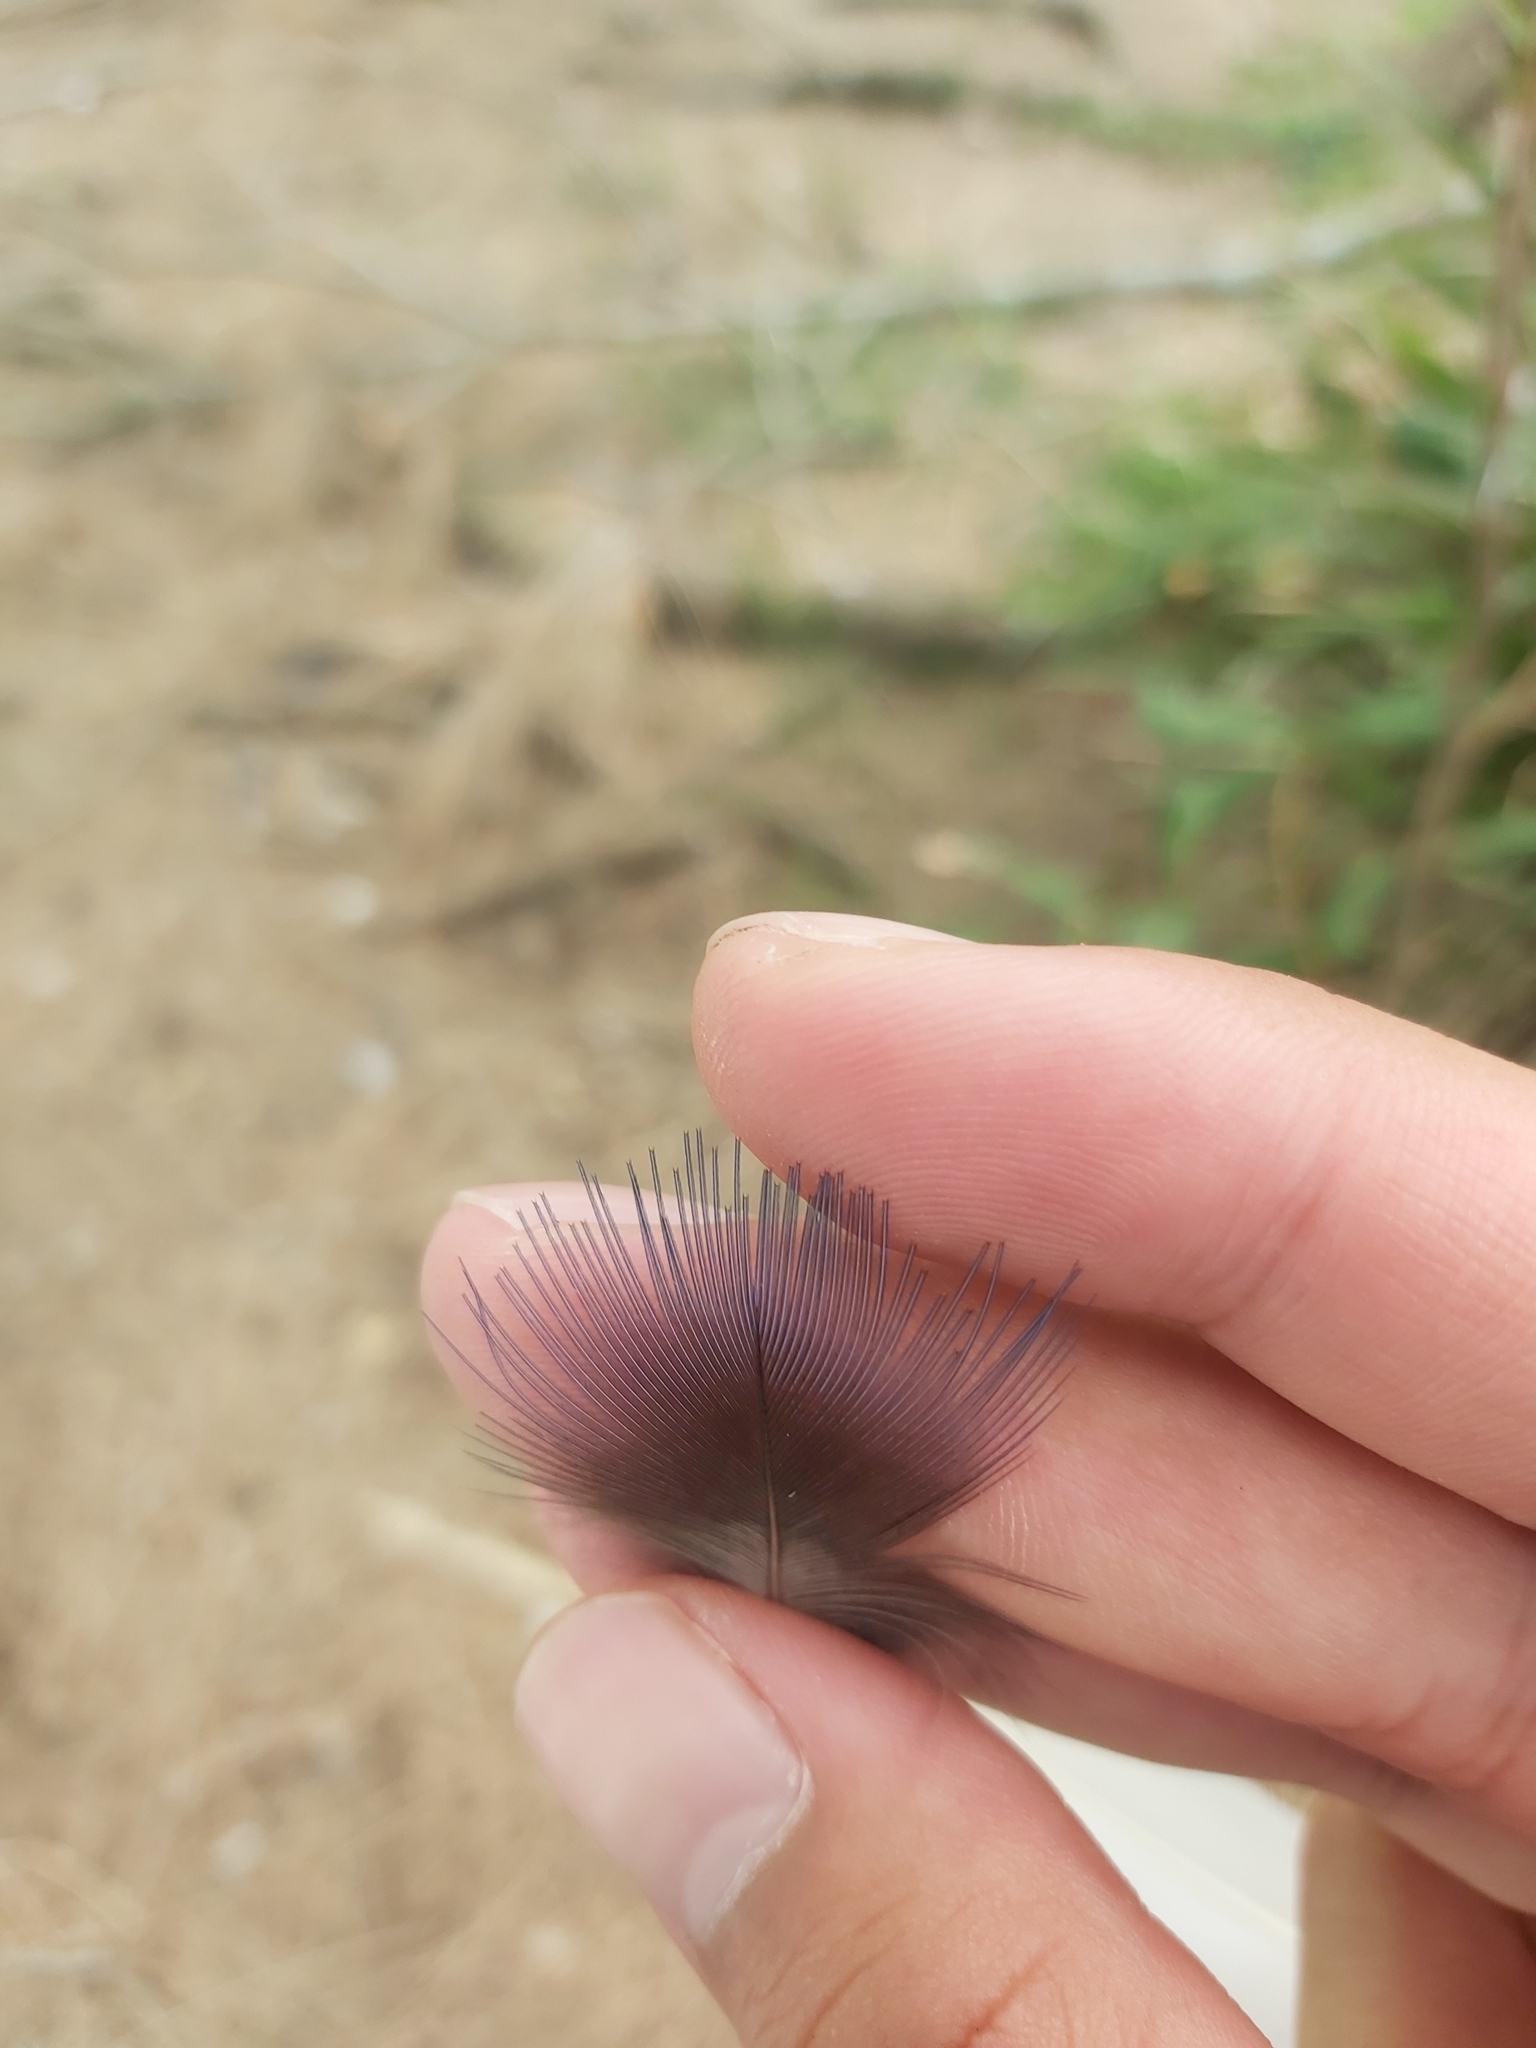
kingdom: Animalia
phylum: Chordata
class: Aves
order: Gruiformes
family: Rallidae
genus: Porphyrio
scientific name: Porphyrio melanotus
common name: Australasian swamphen
